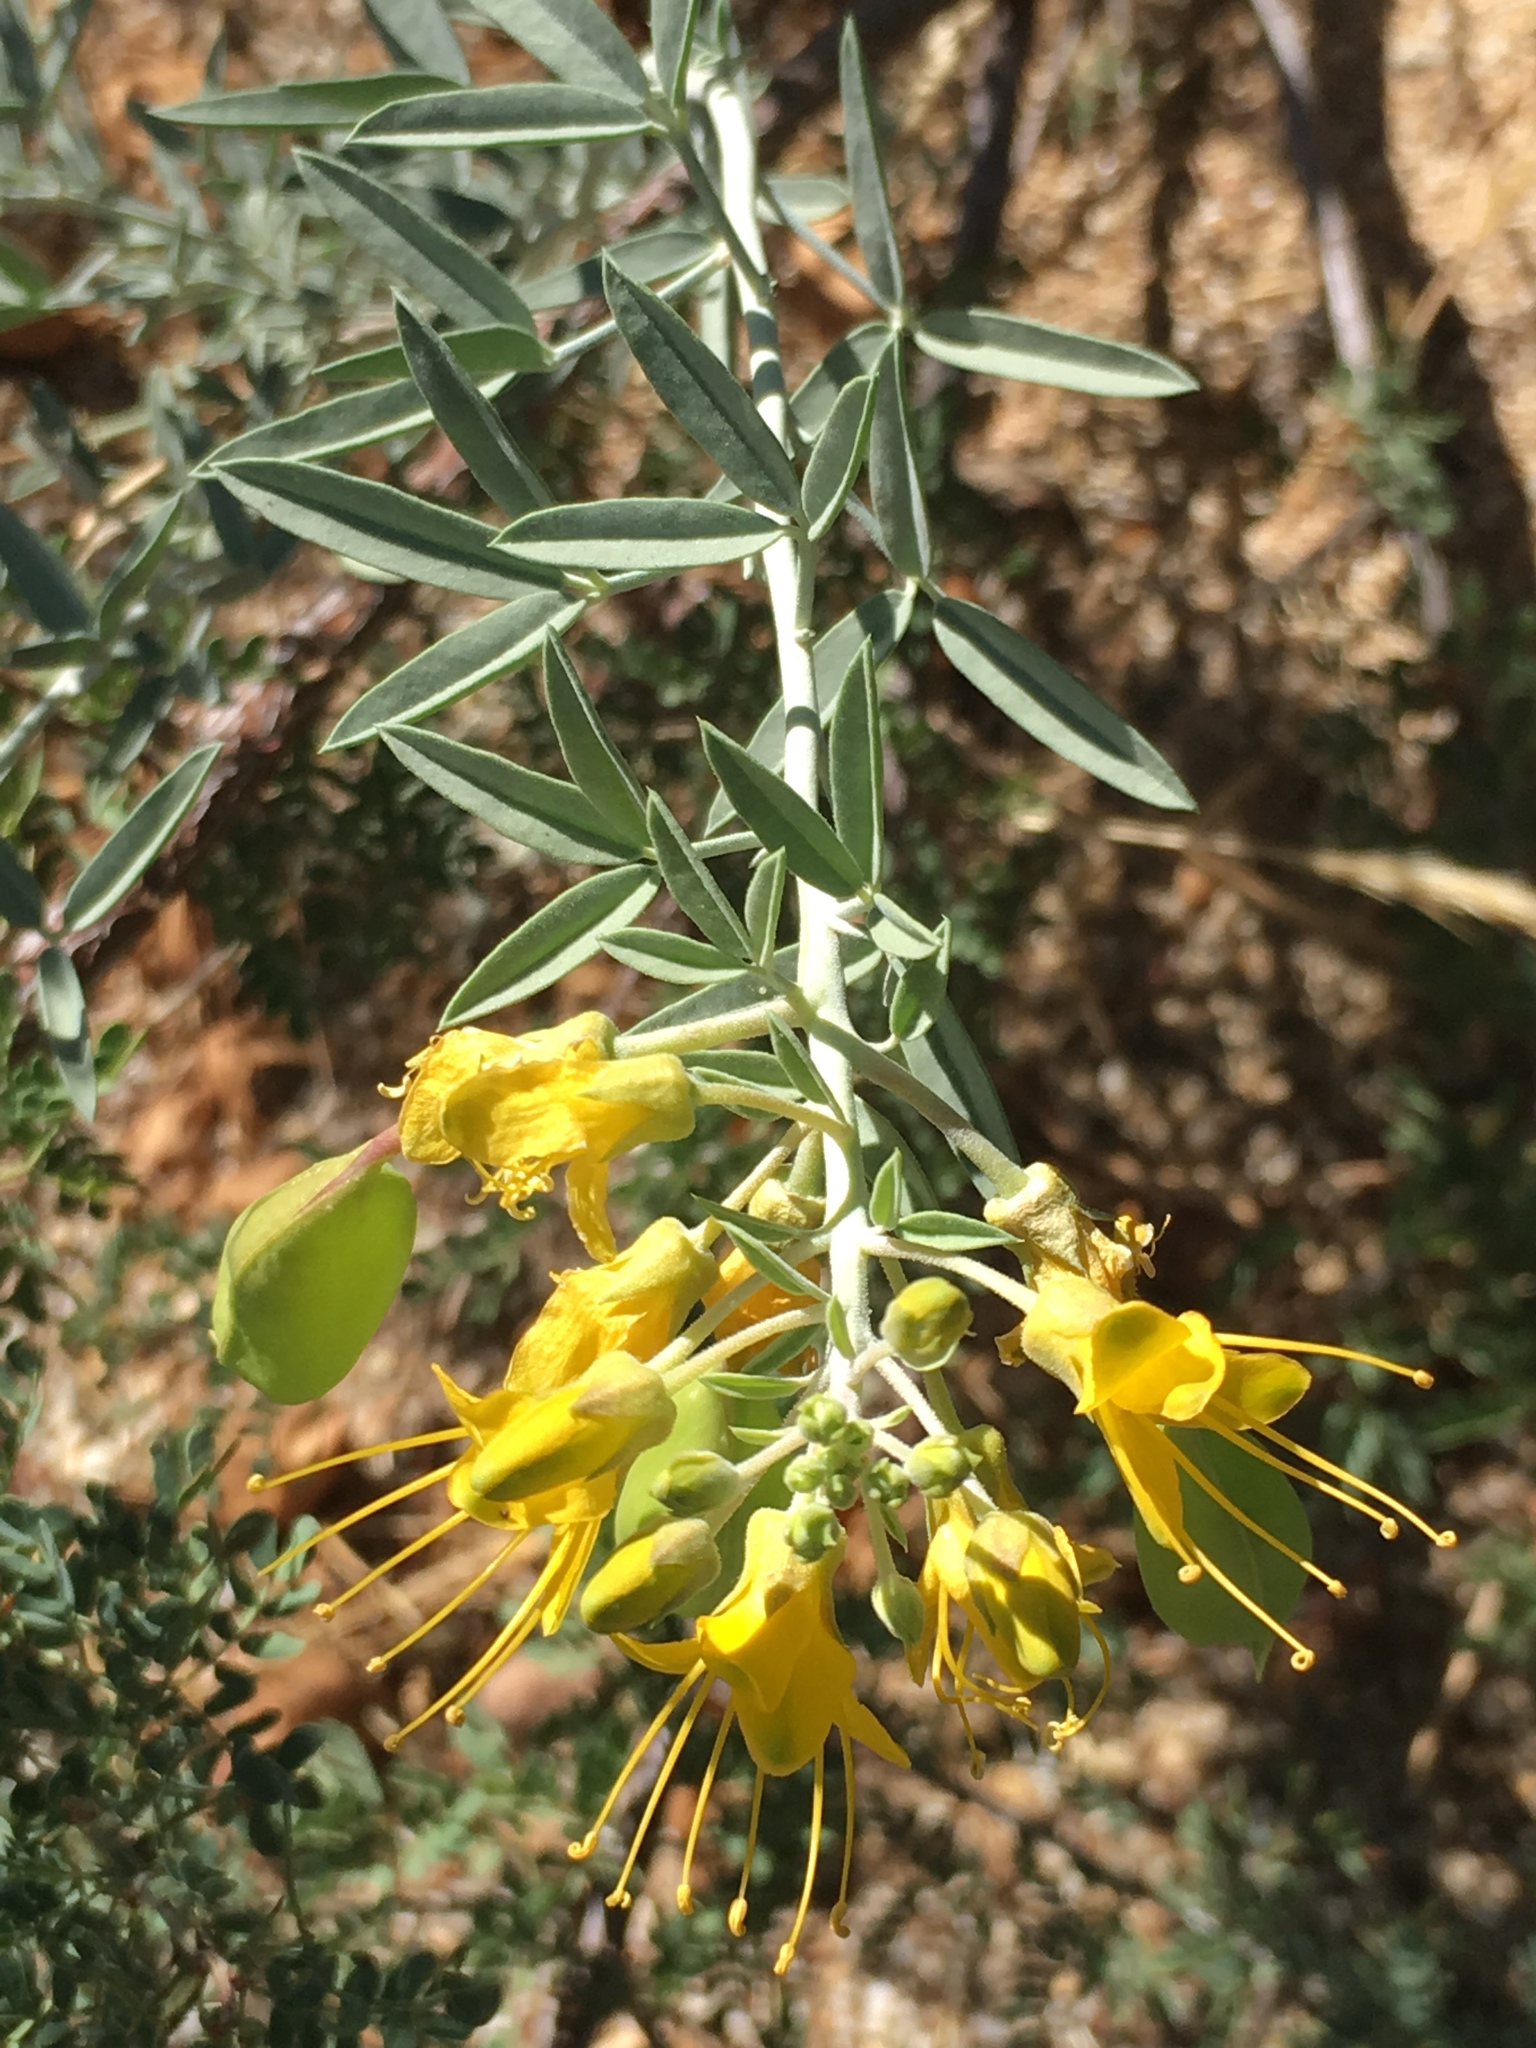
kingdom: Plantae
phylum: Tracheophyta
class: Magnoliopsida
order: Brassicales
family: Cleomaceae
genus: Cleomella
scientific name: Cleomella arborea
